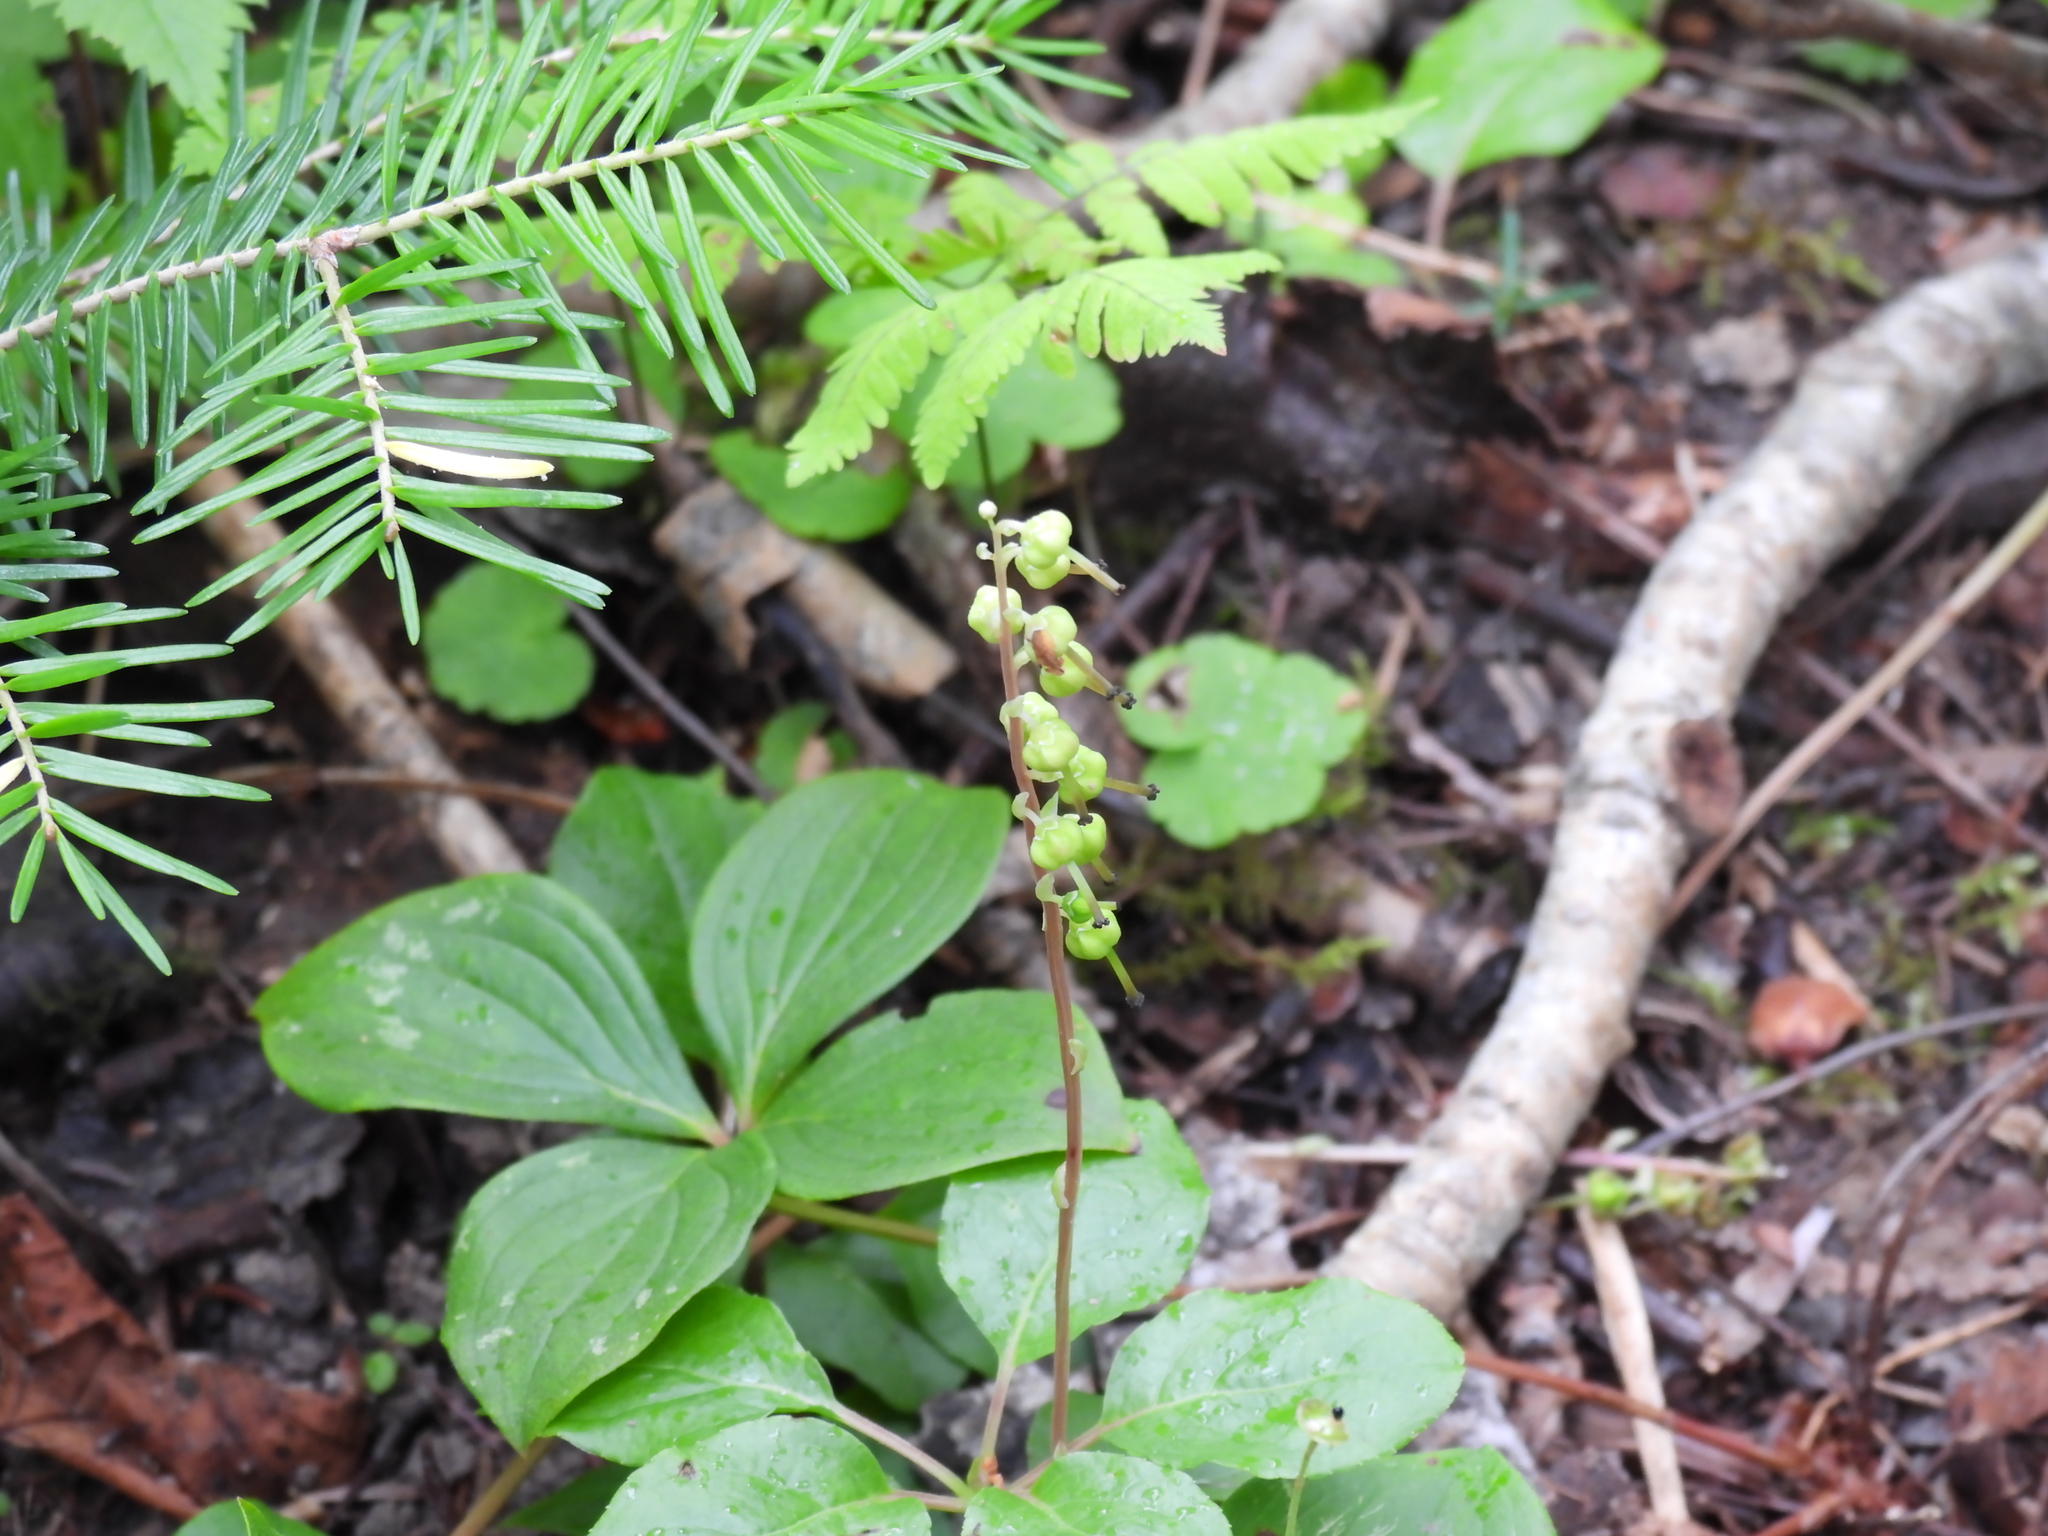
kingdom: Plantae
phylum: Tracheophyta
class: Magnoliopsida
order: Cornales
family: Cornaceae
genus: Cornus
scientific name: Cornus canadensis
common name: Creeping dogwood
